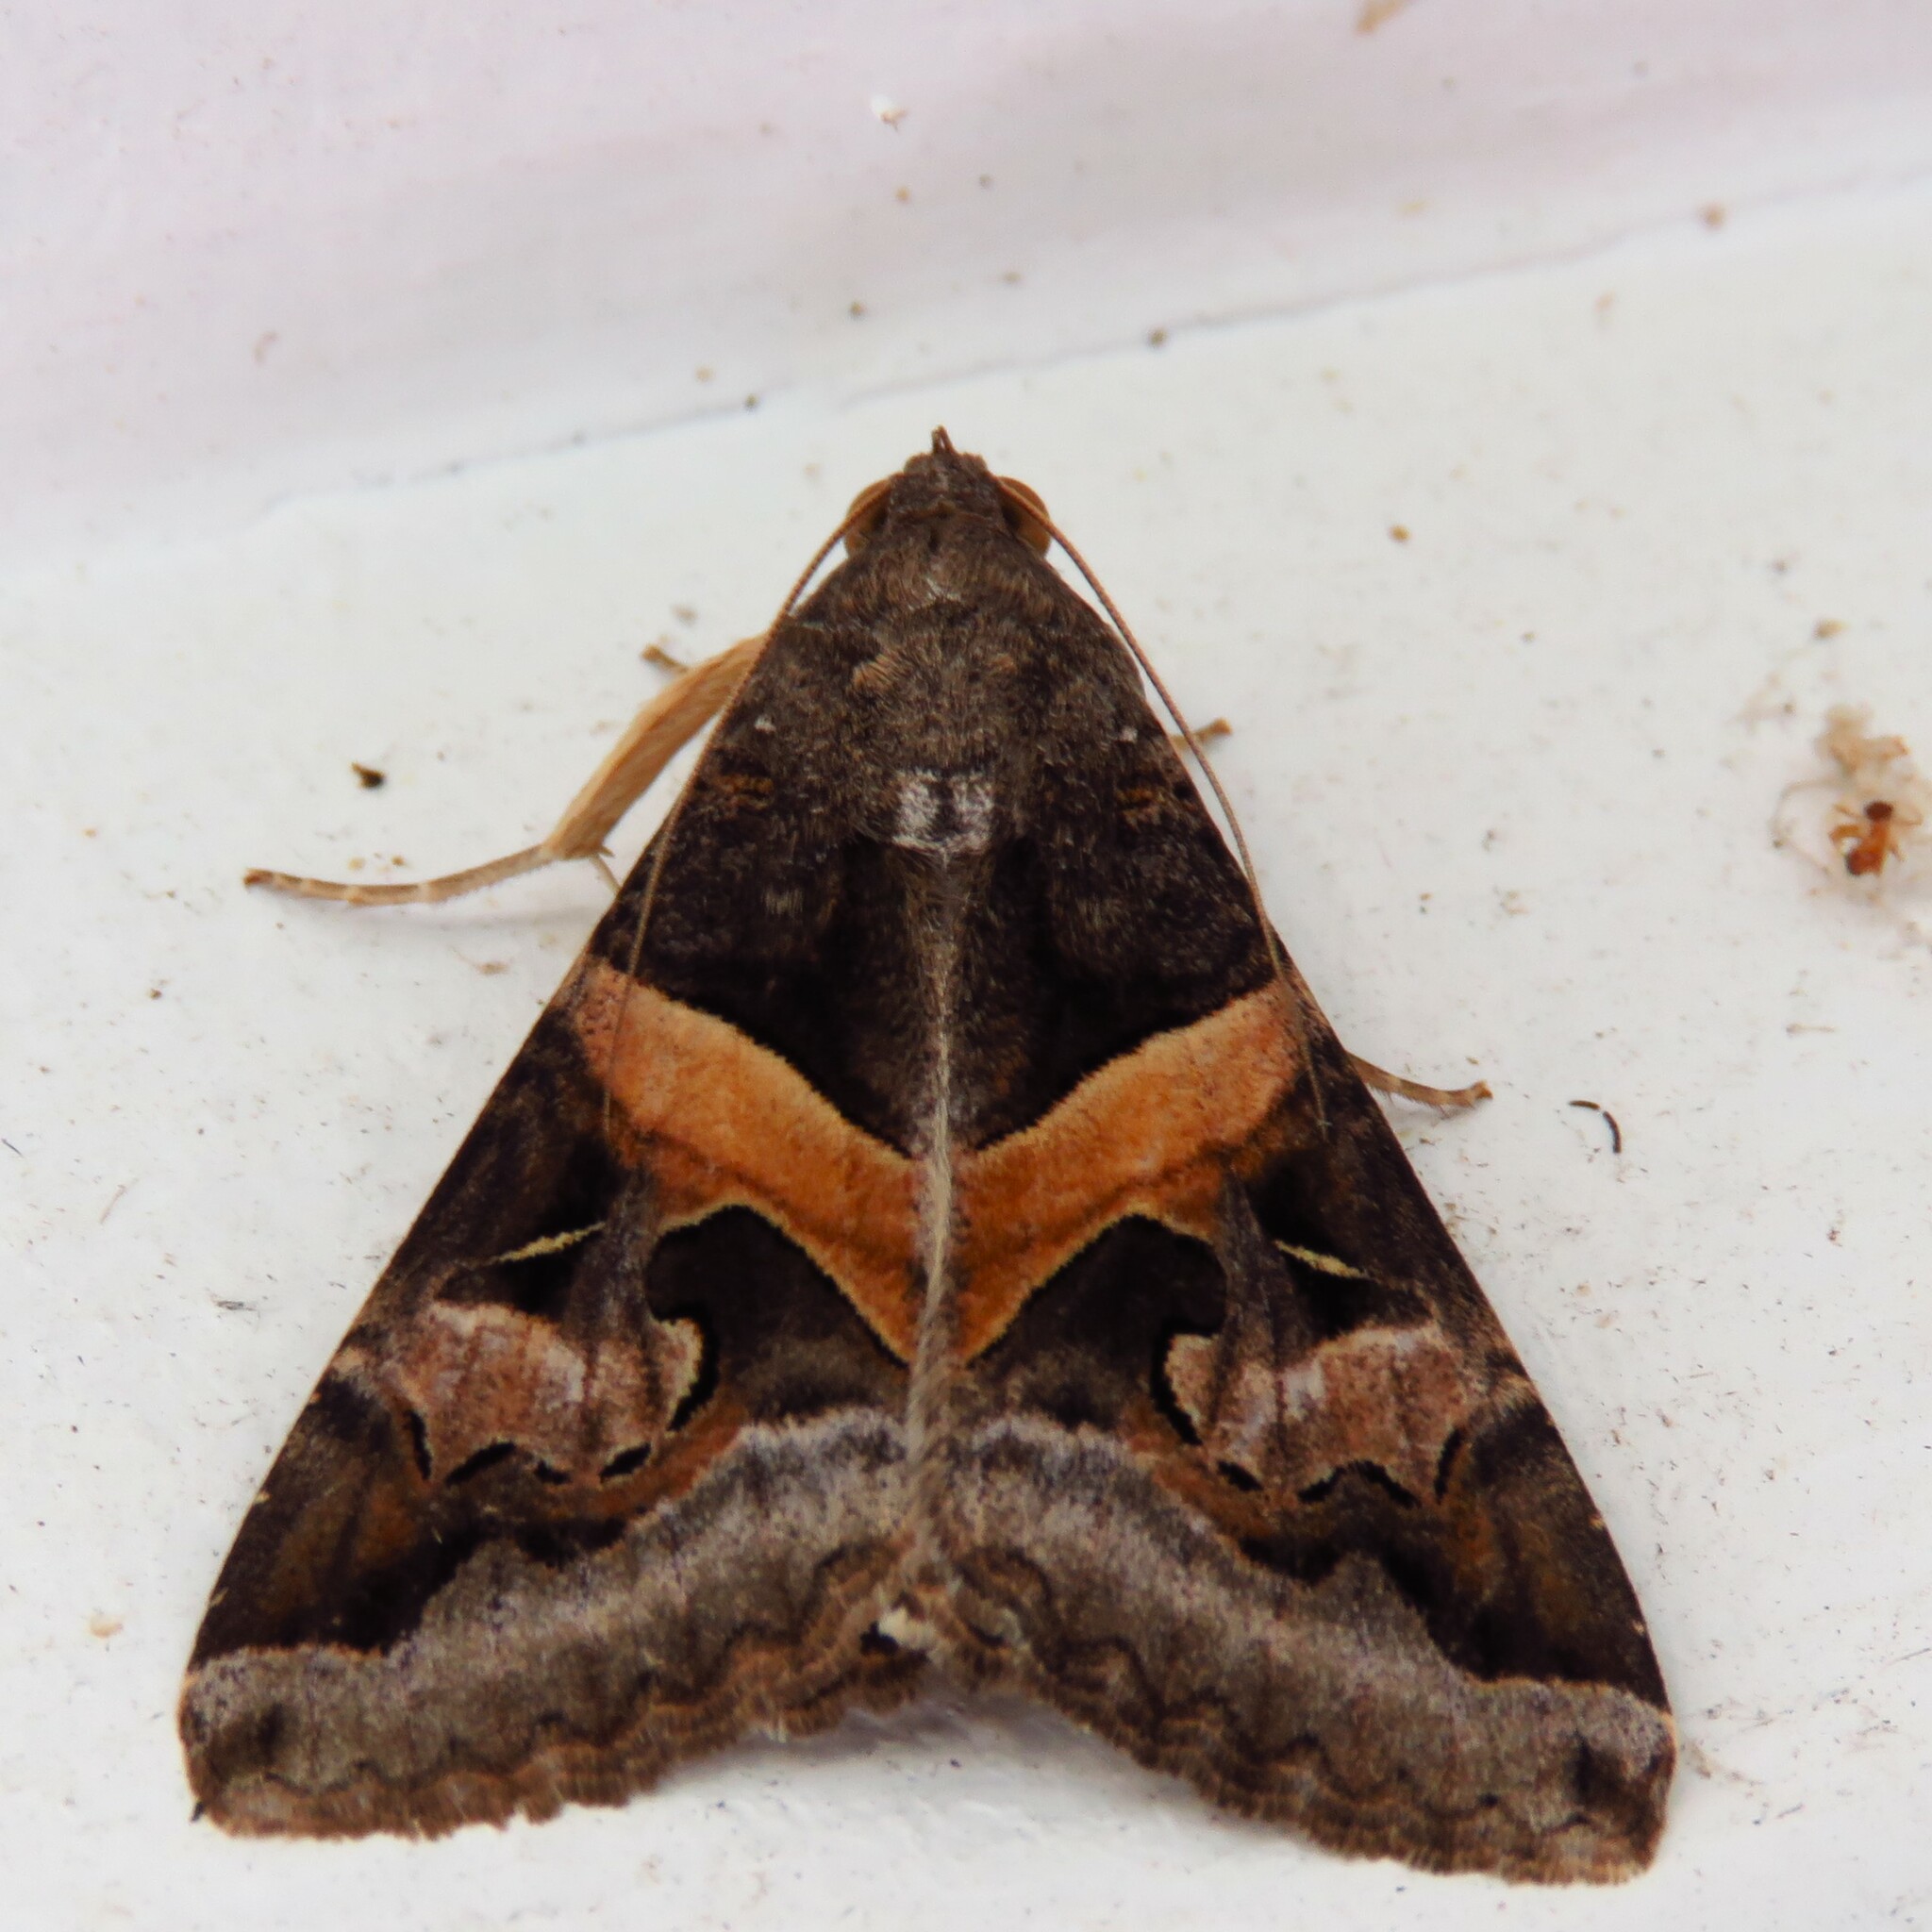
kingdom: Animalia
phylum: Arthropoda
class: Insecta
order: Lepidoptera
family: Erebidae
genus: Melipotis
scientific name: Melipotis indomita
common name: Moth
